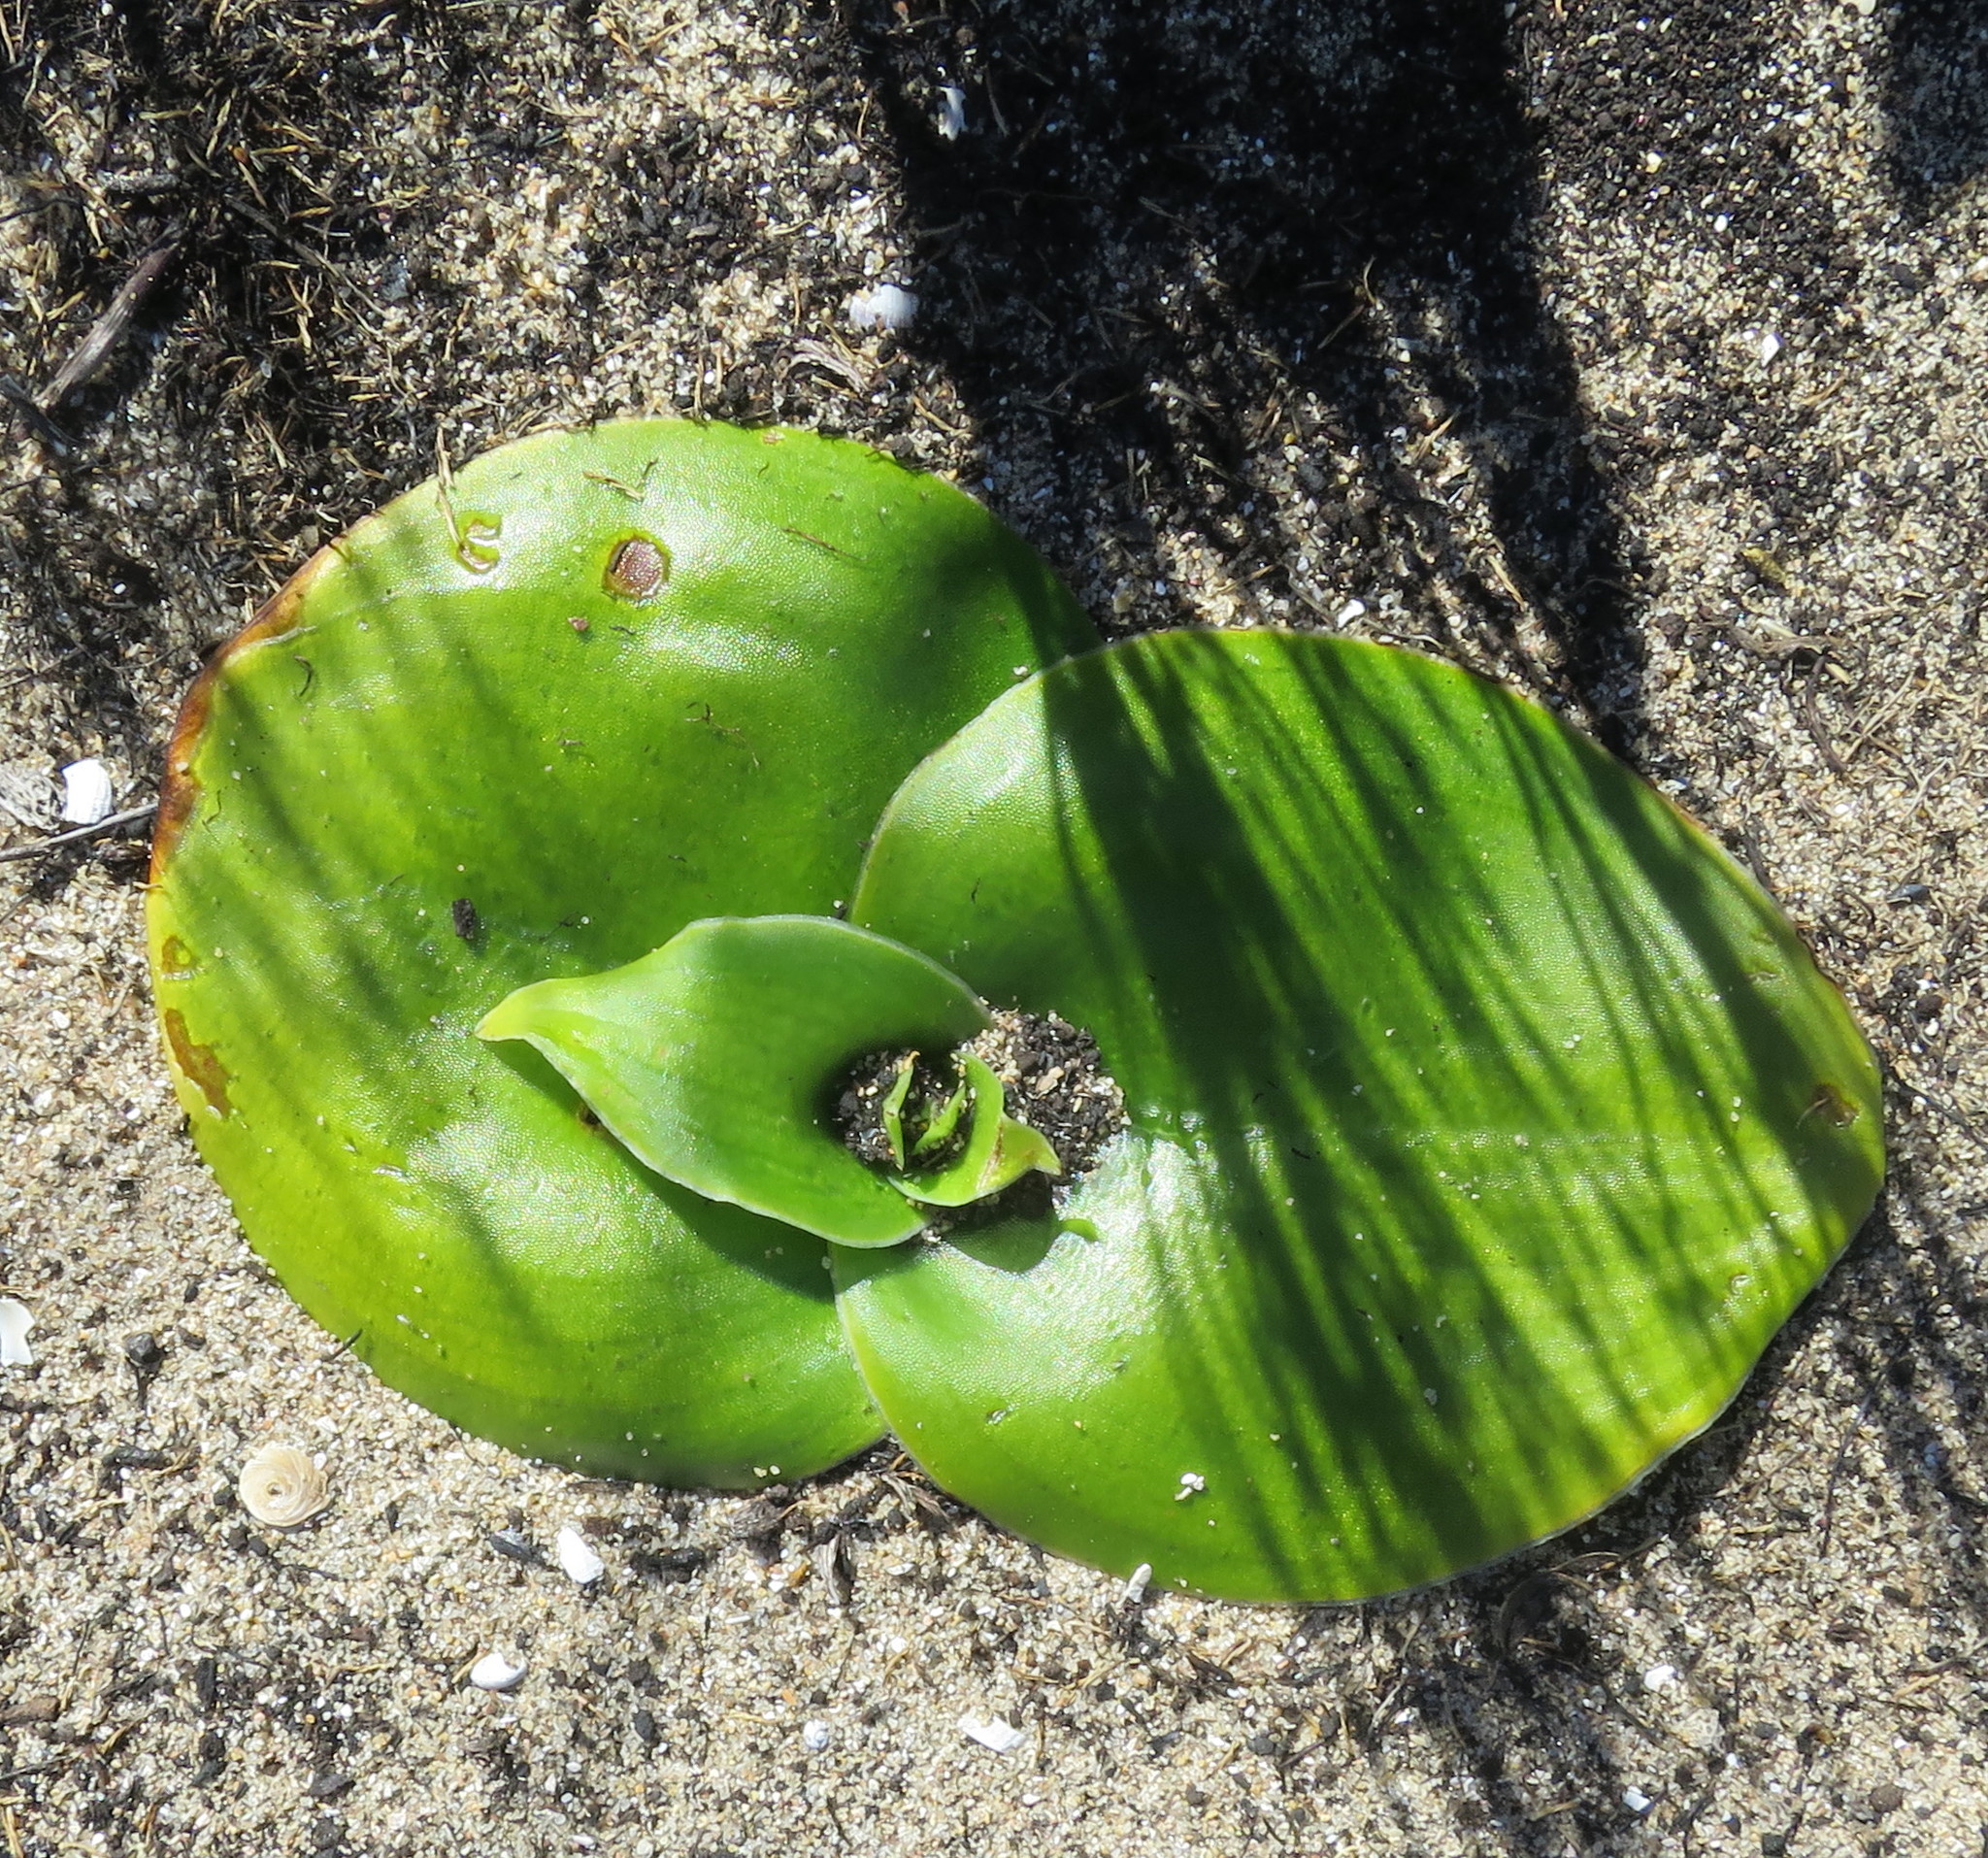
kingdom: Plantae
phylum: Tracheophyta
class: Liliopsida
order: Asparagales
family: Orchidaceae
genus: Satyrium
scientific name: Satyrium princeps
